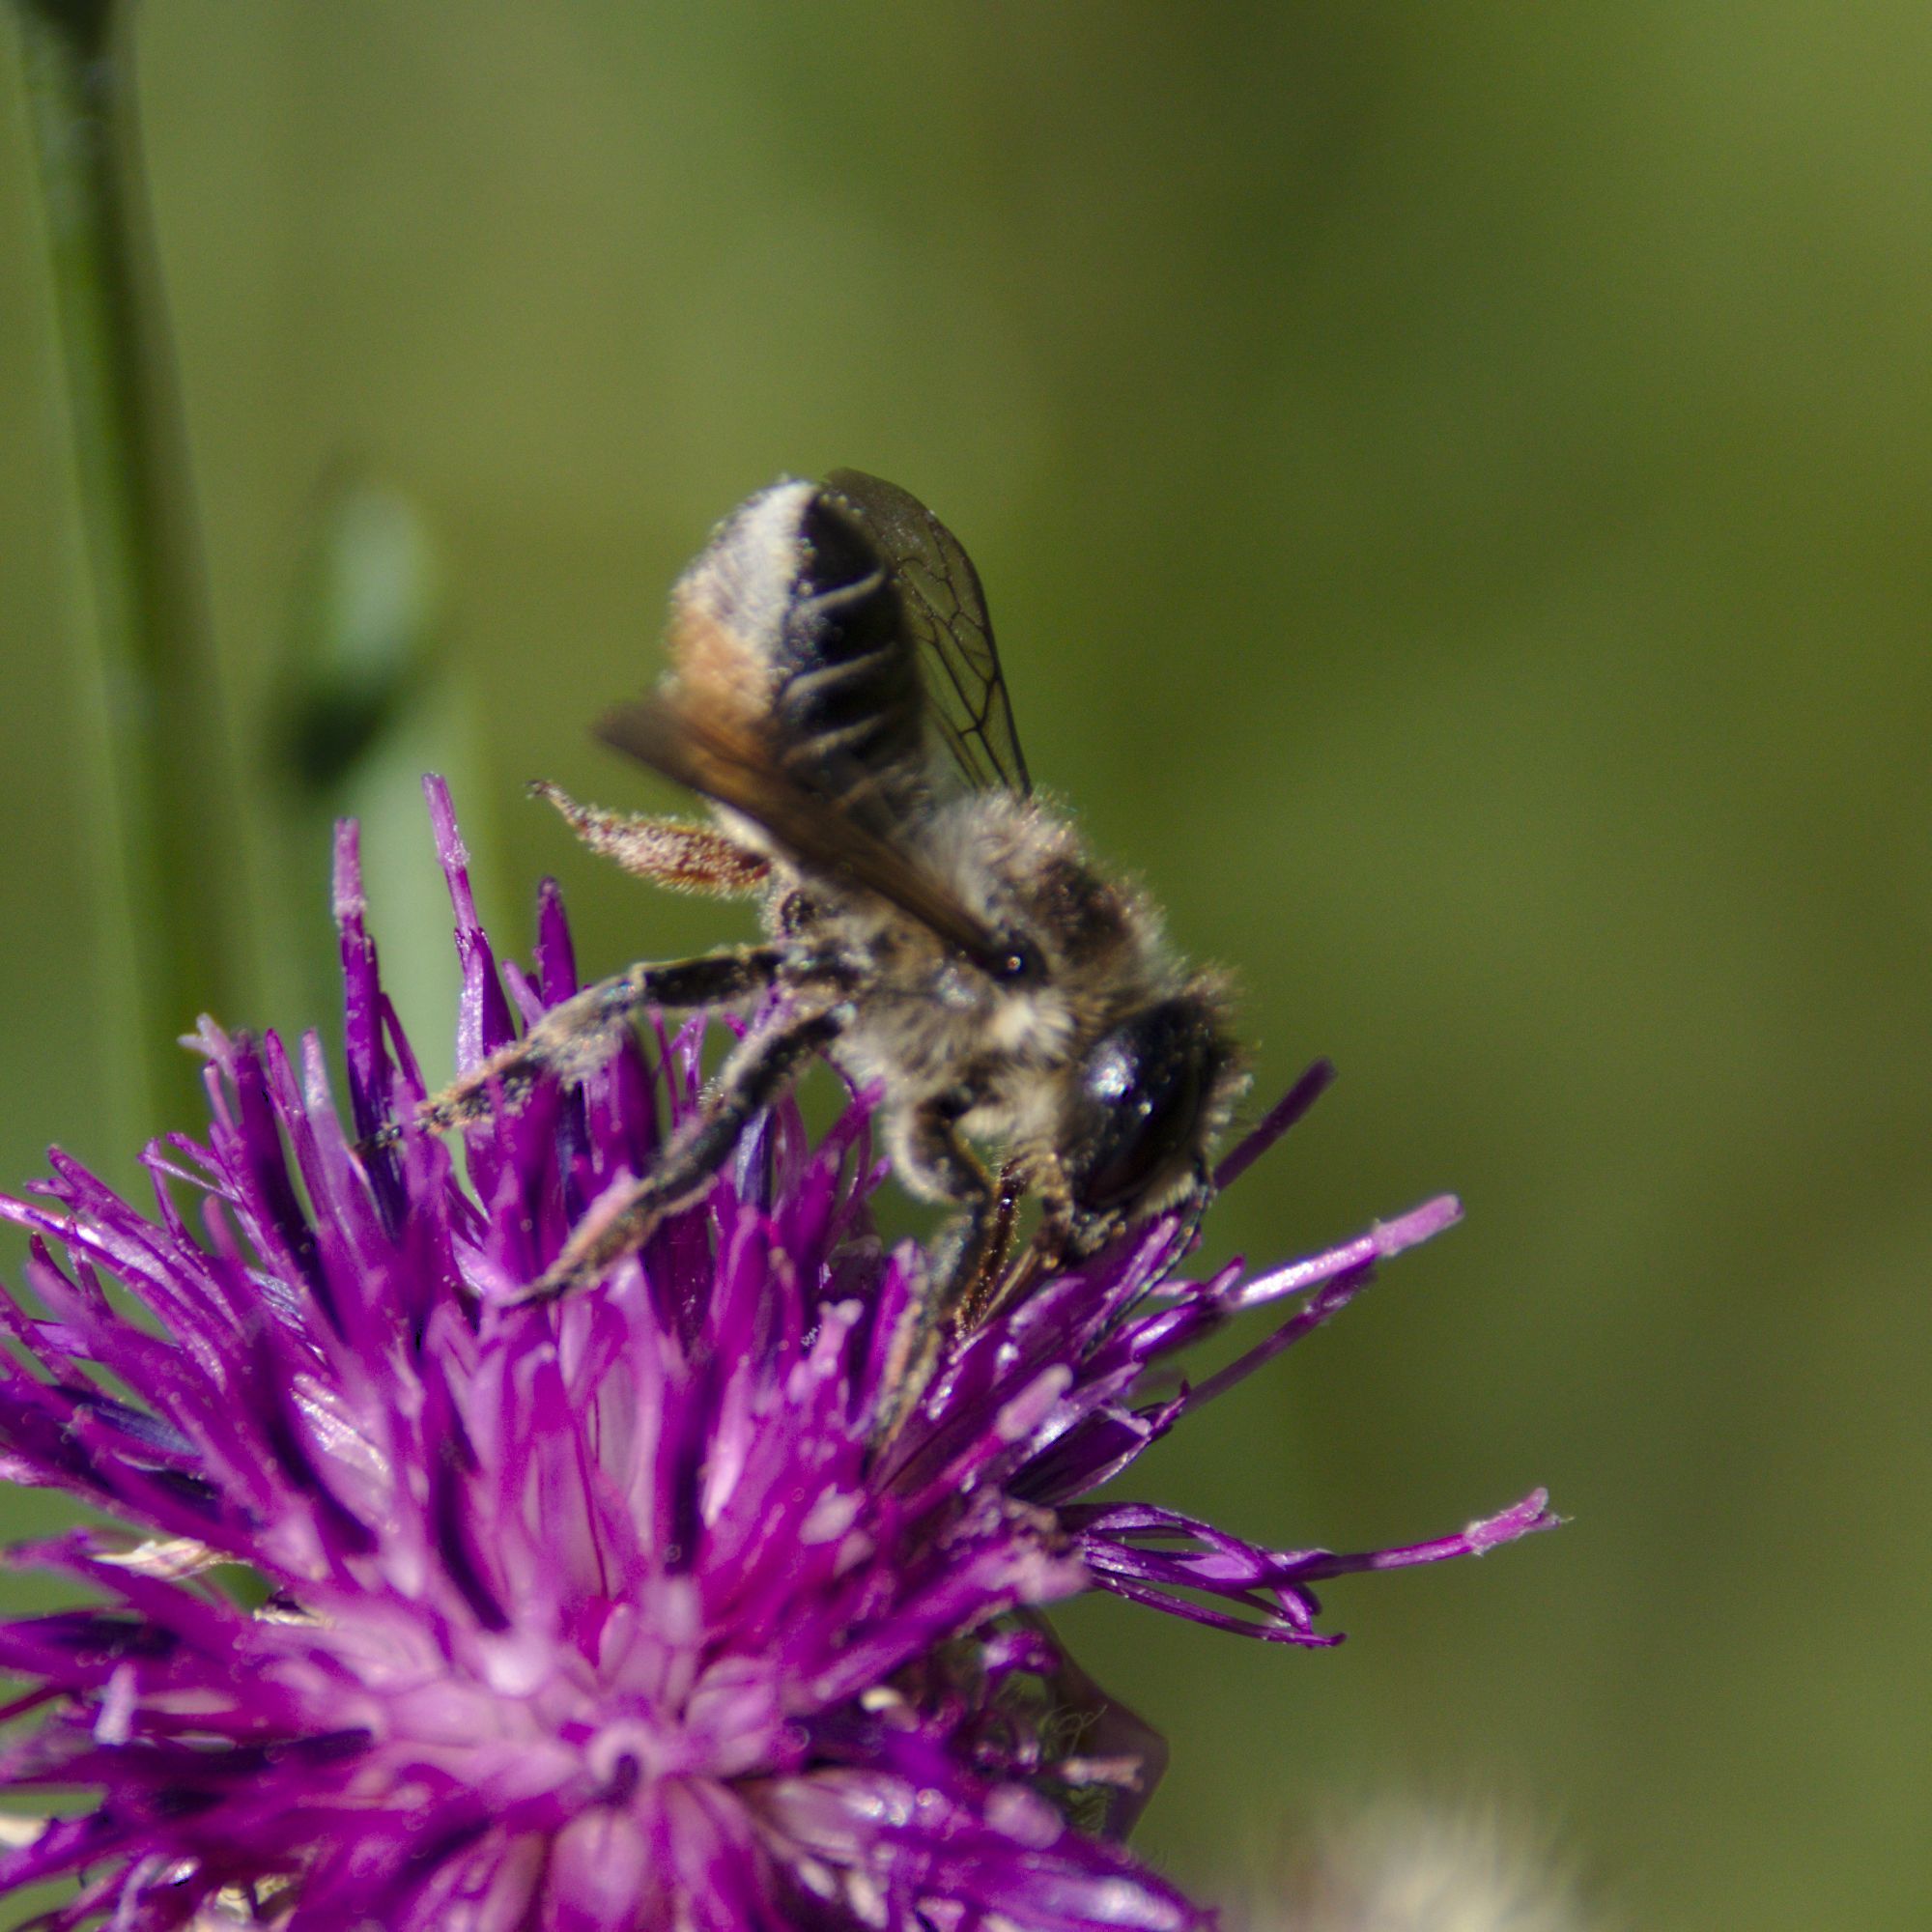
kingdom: Animalia
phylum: Arthropoda
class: Insecta
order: Hymenoptera
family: Megachilidae
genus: Megachile
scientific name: Megachile
